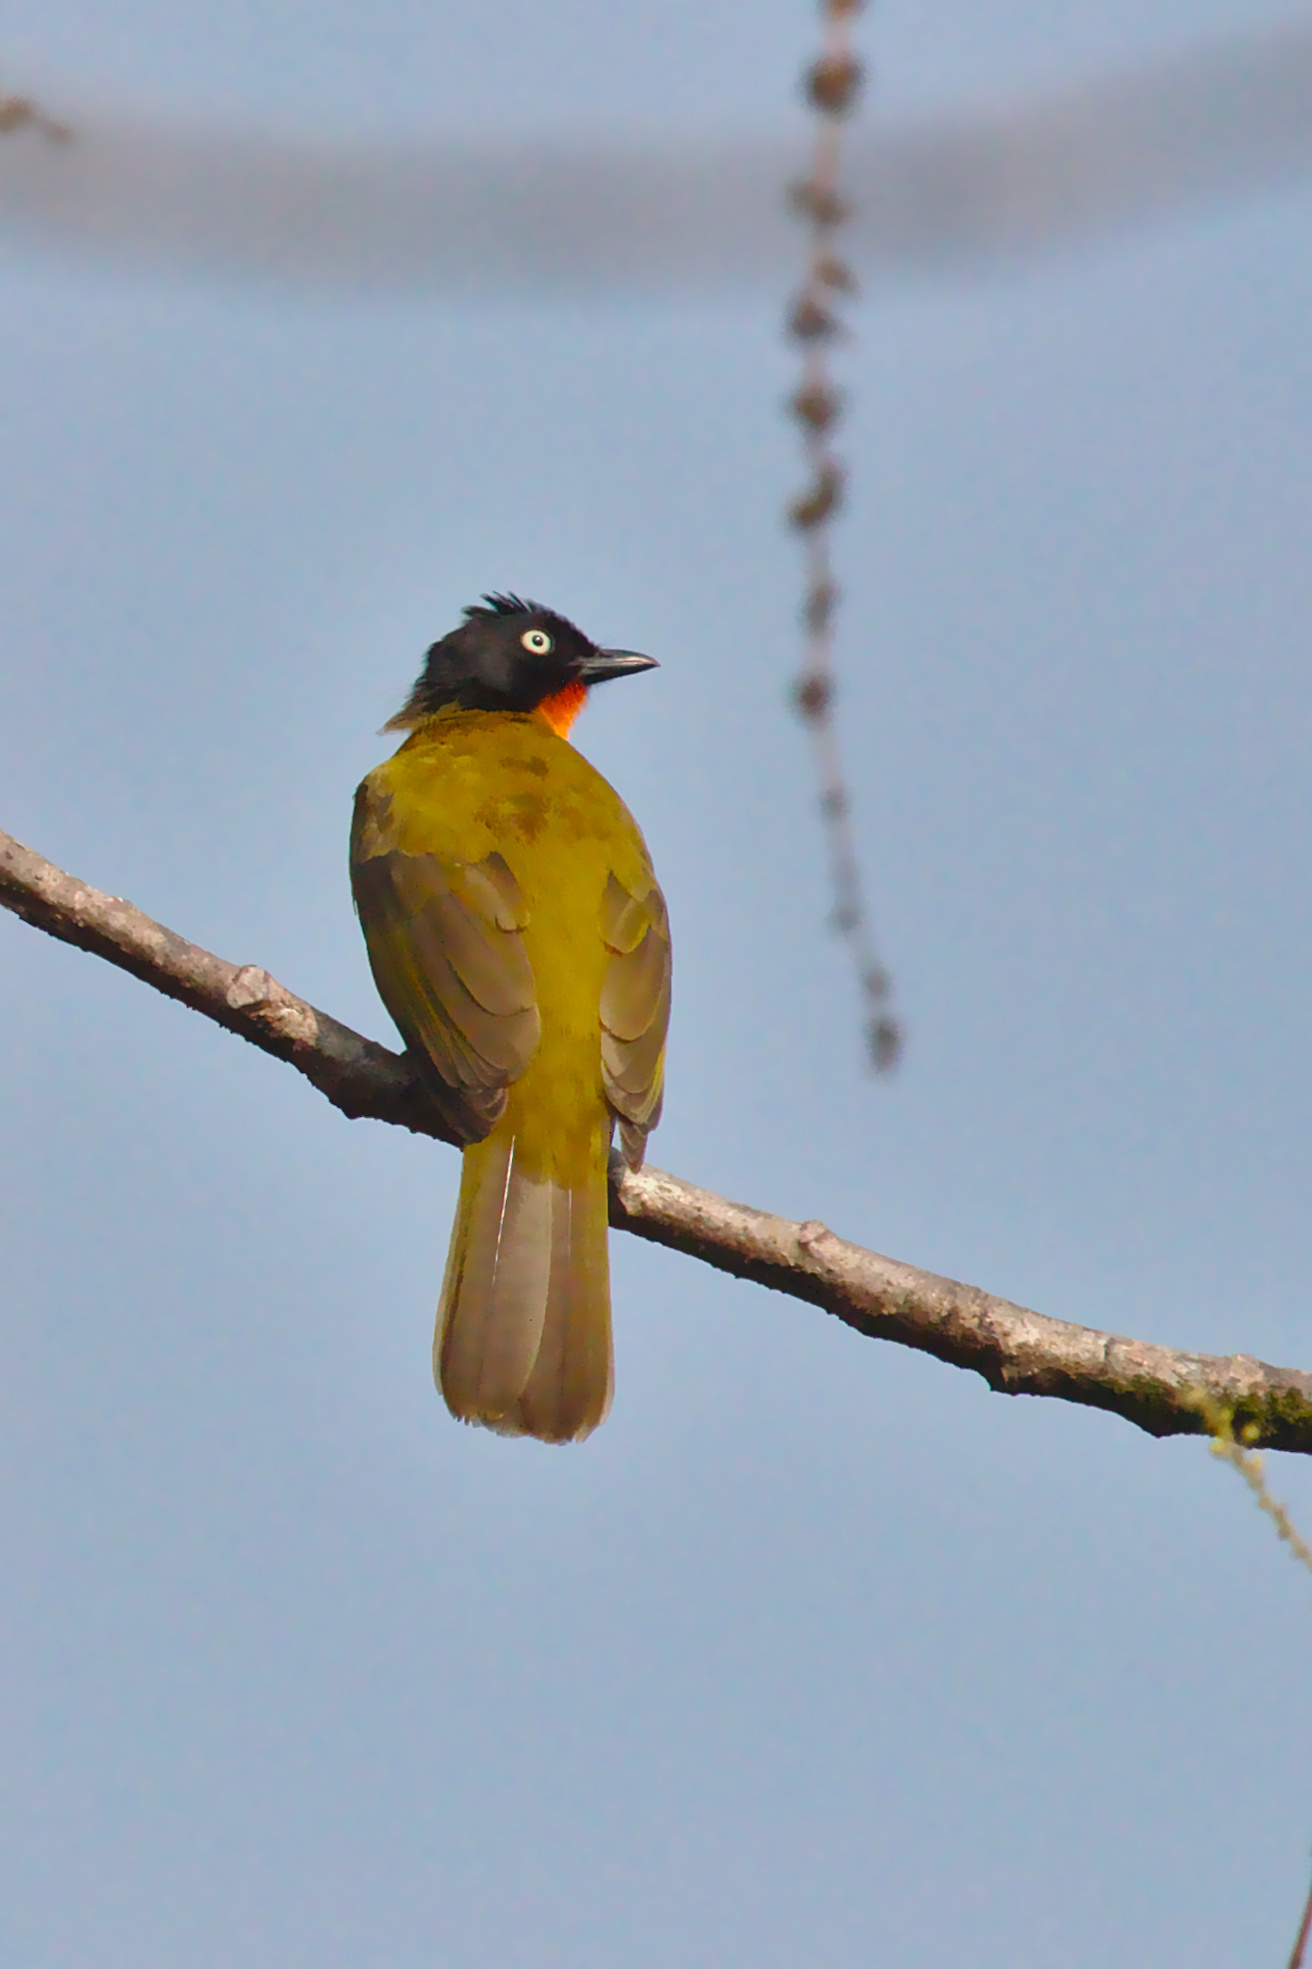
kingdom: Animalia
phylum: Chordata
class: Aves
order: Passeriformes
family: Pycnonotidae
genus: Pycnonotus
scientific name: Pycnonotus gularis
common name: Flame-throated bulbul
